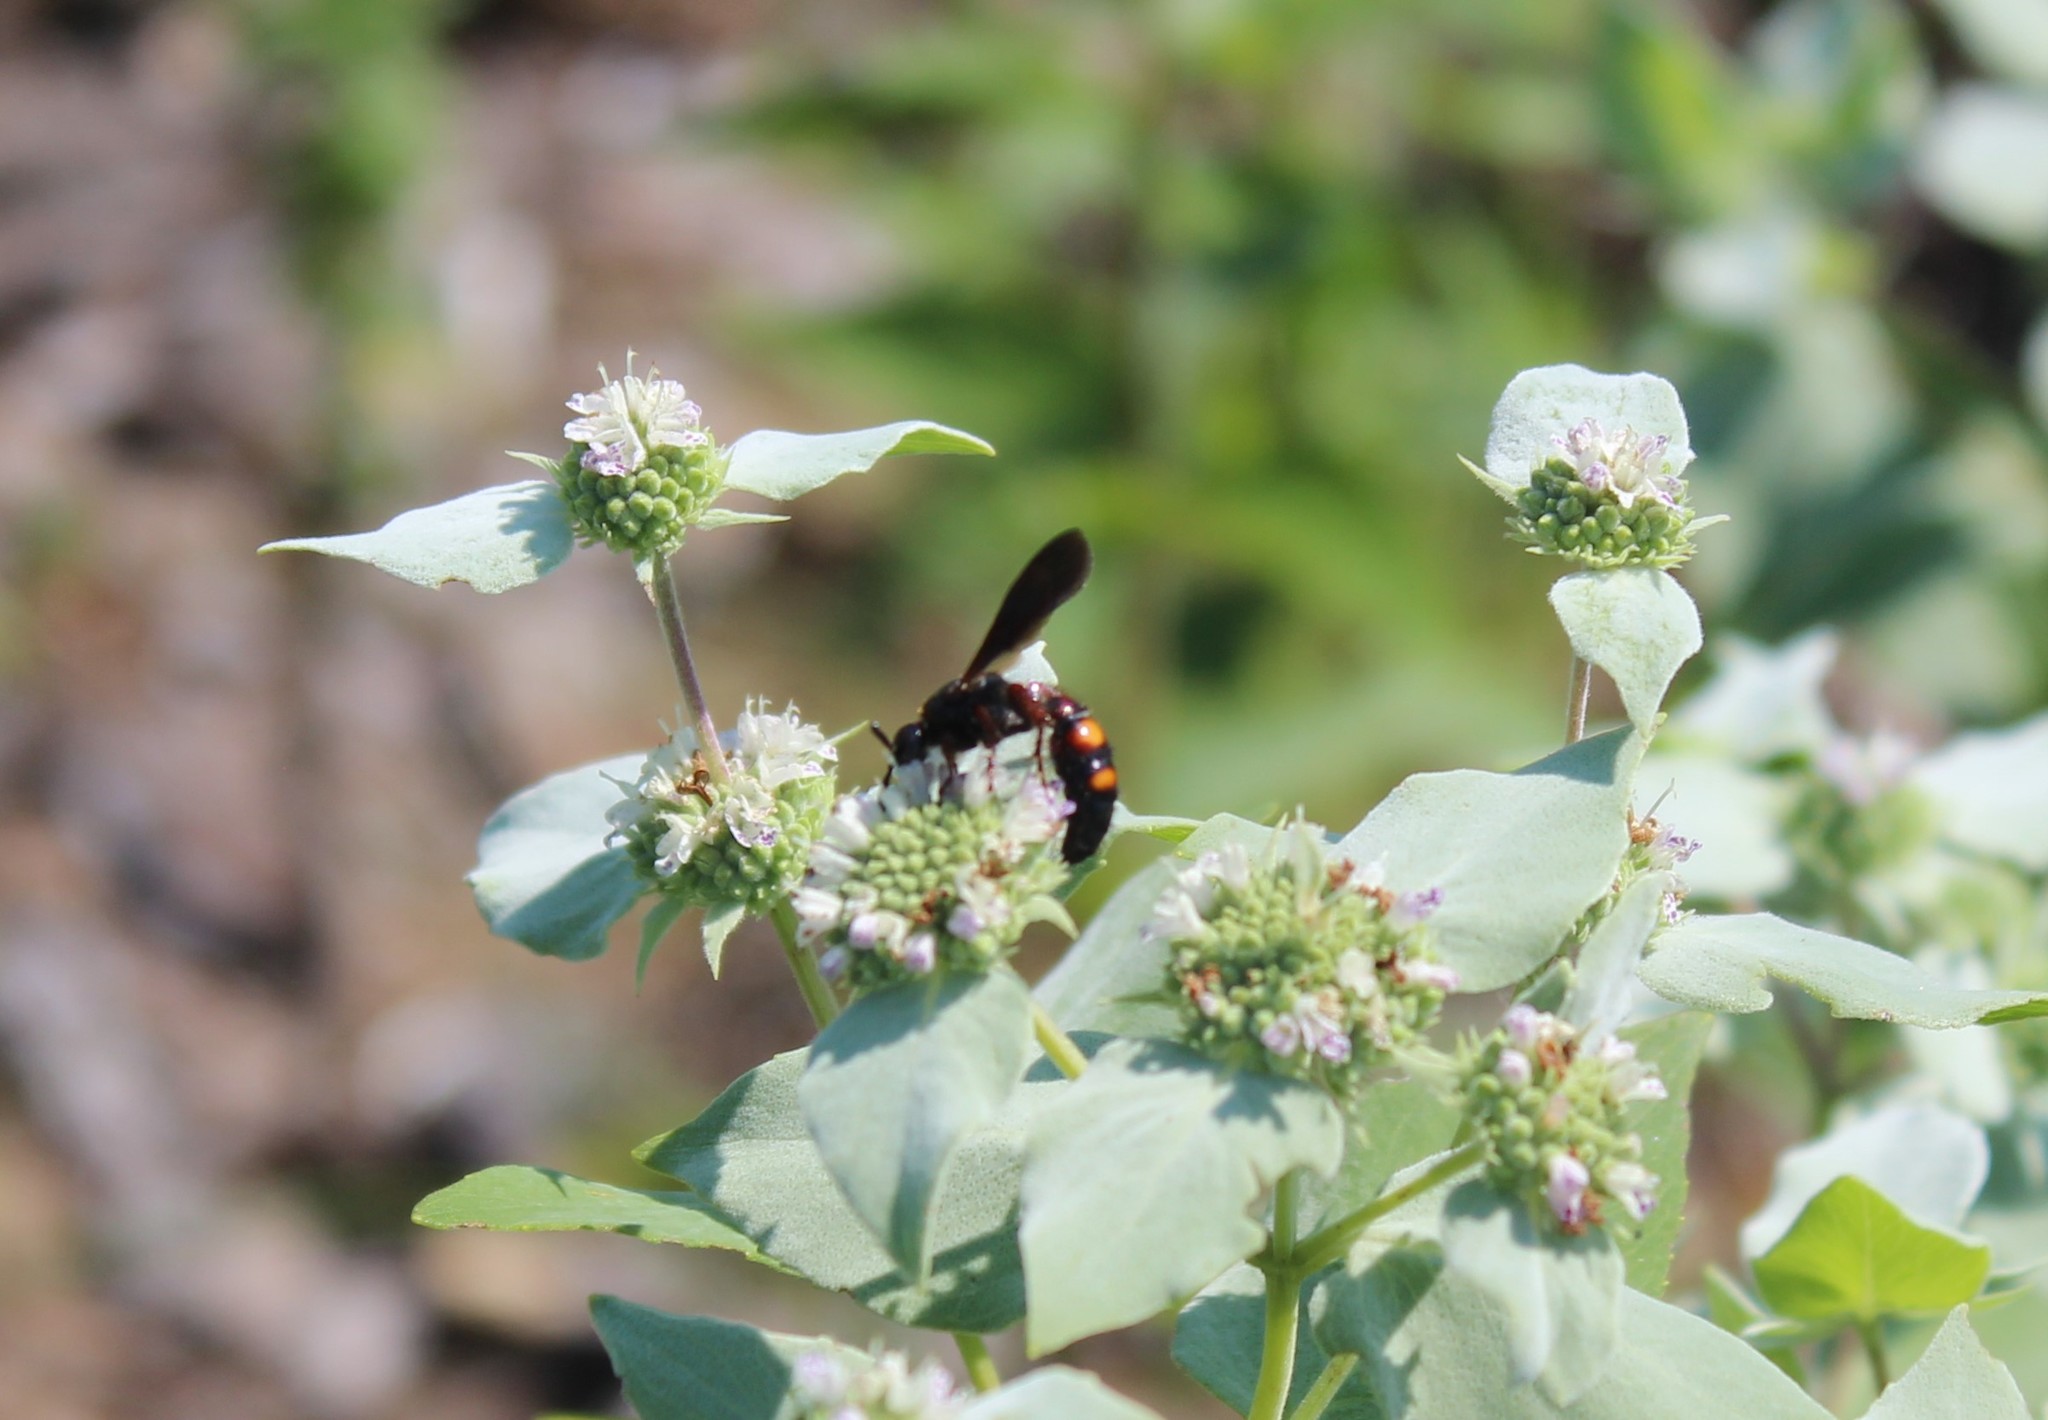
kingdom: Animalia
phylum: Arthropoda
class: Insecta
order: Hymenoptera
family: Scoliidae
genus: Scolia
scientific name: Scolia nobilitata
